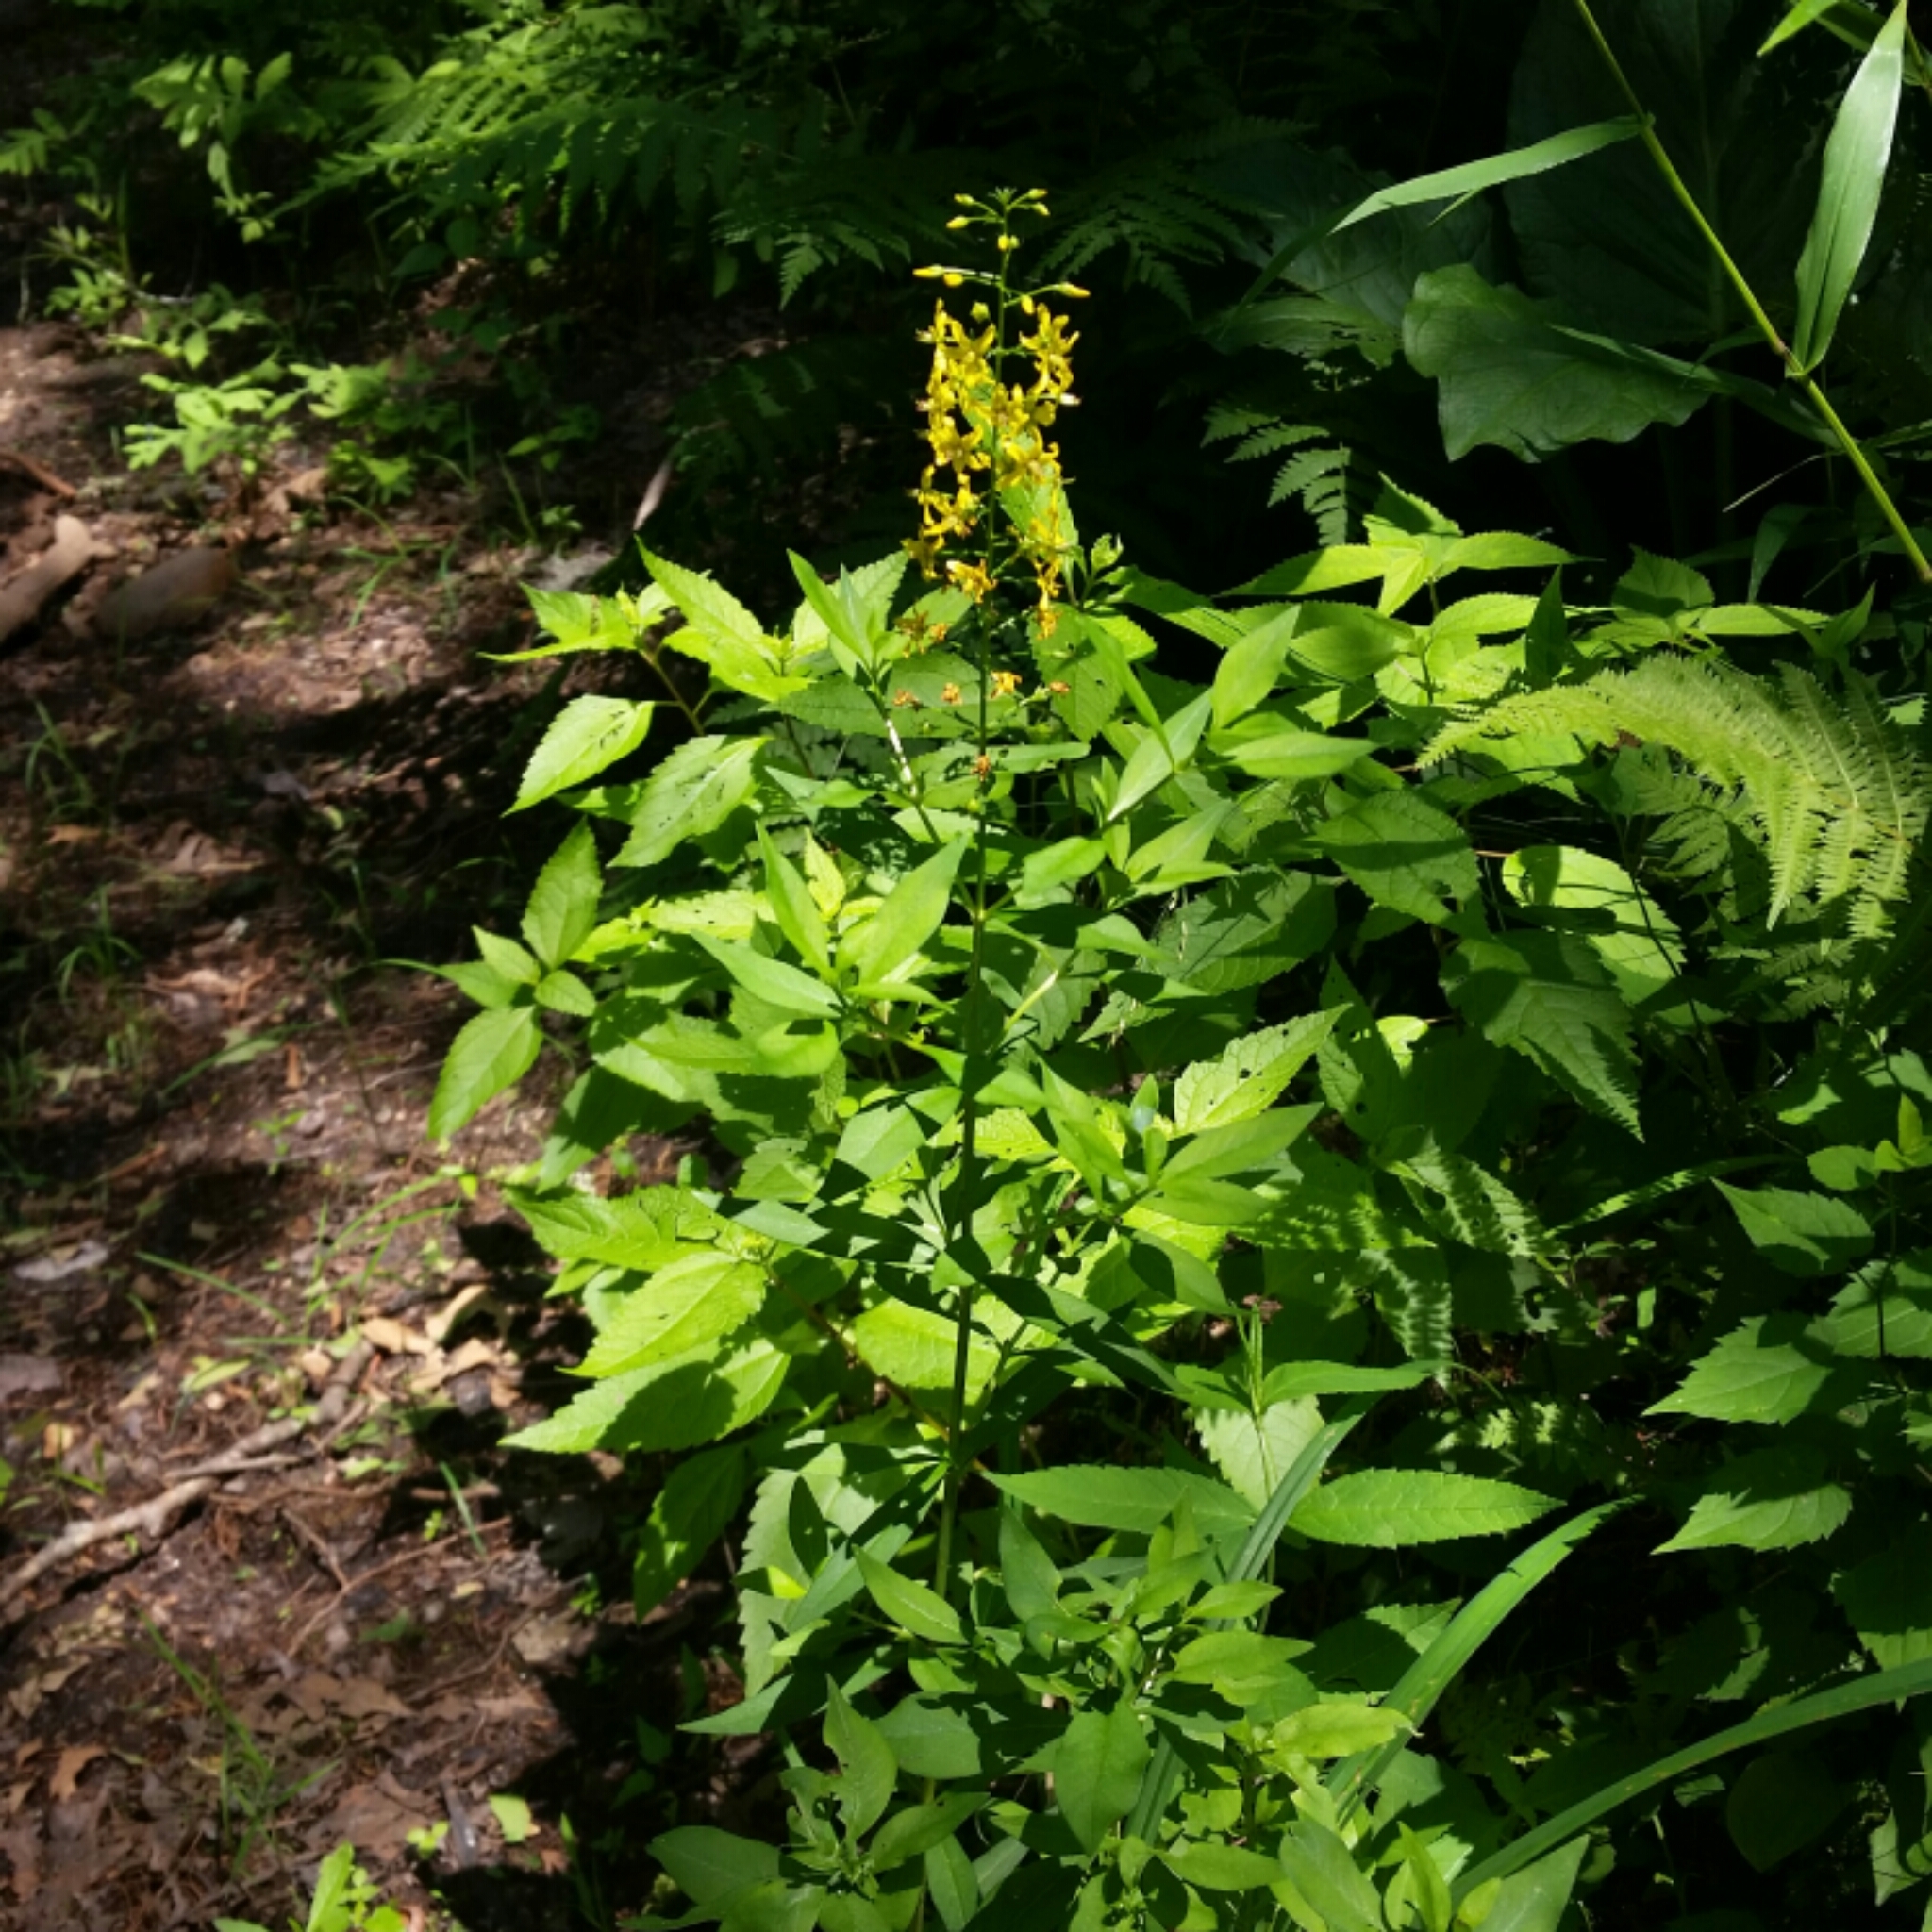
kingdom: Plantae
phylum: Tracheophyta
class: Magnoliopsida
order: Ericales
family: Primulaceae
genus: Lysimachia
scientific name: Lysimachia terrestris
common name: Lake loosestrife
